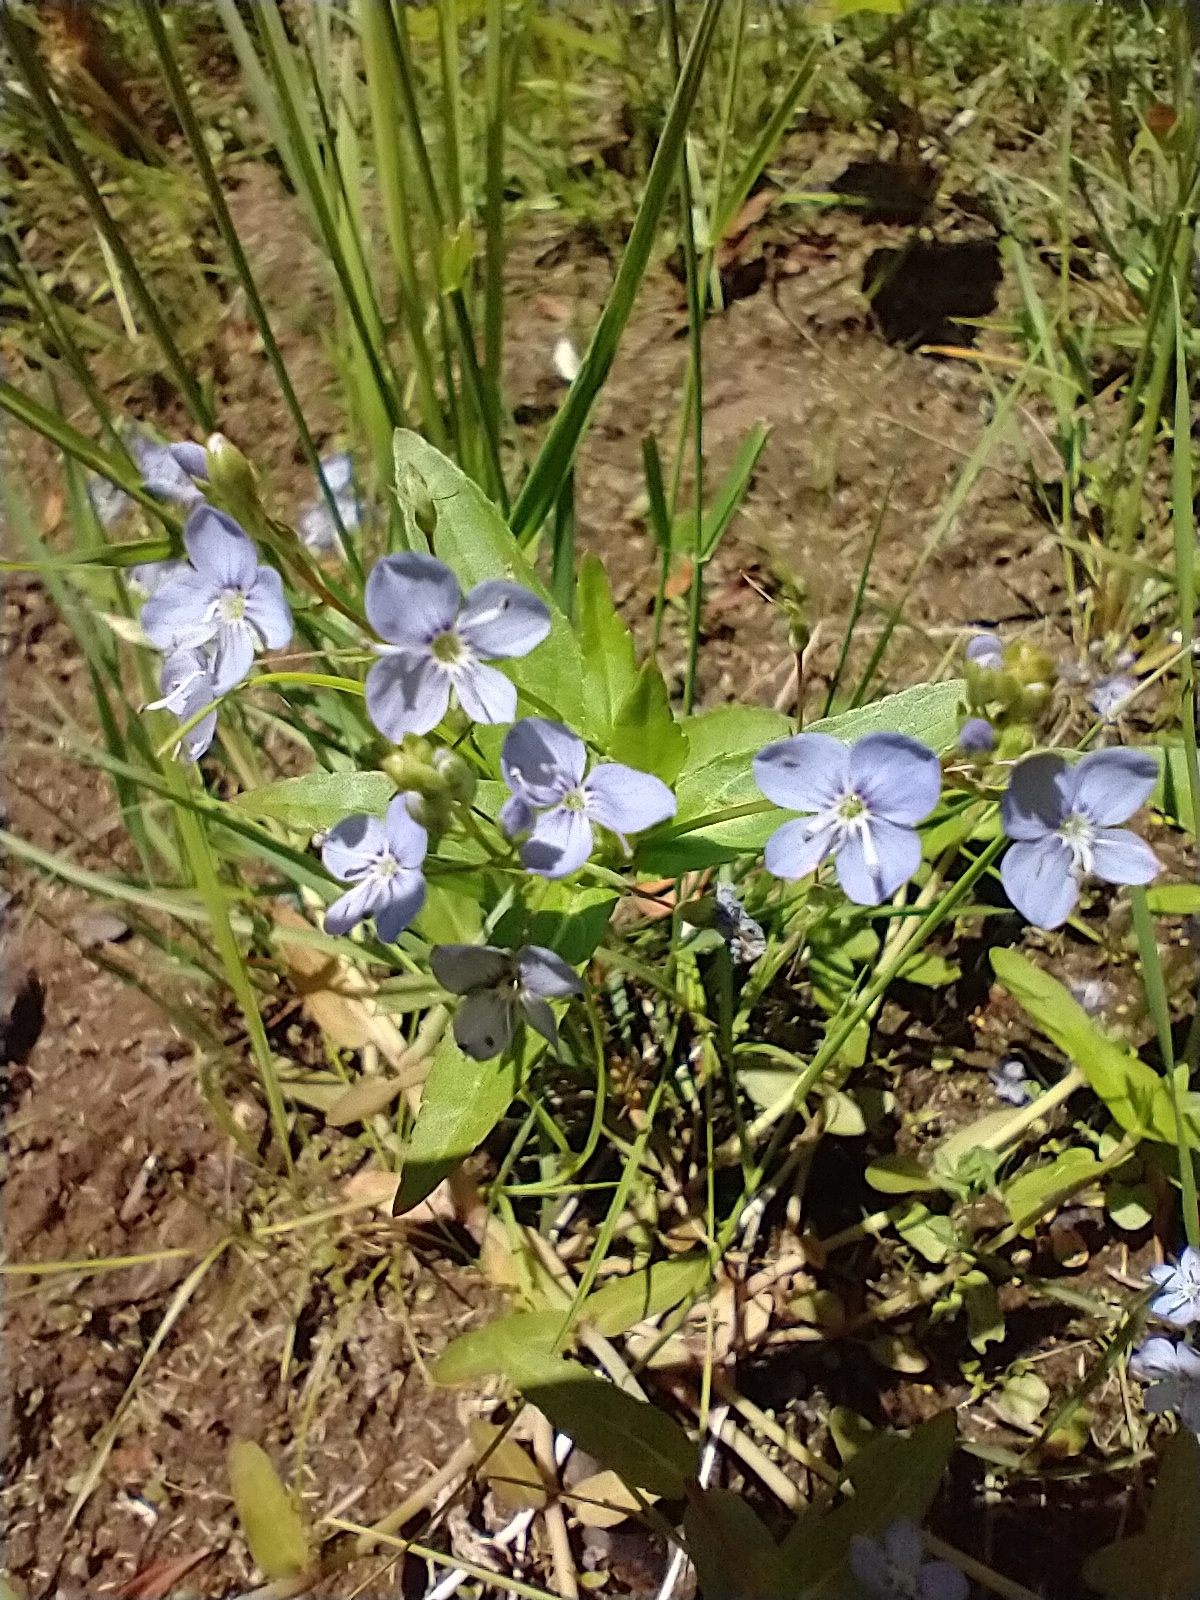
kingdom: Plantae
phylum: Tracheophyta
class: Magnoliopsida
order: Lamiales
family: Plantaginaceae
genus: Veronica
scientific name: Veronica americana
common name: American brooklime
